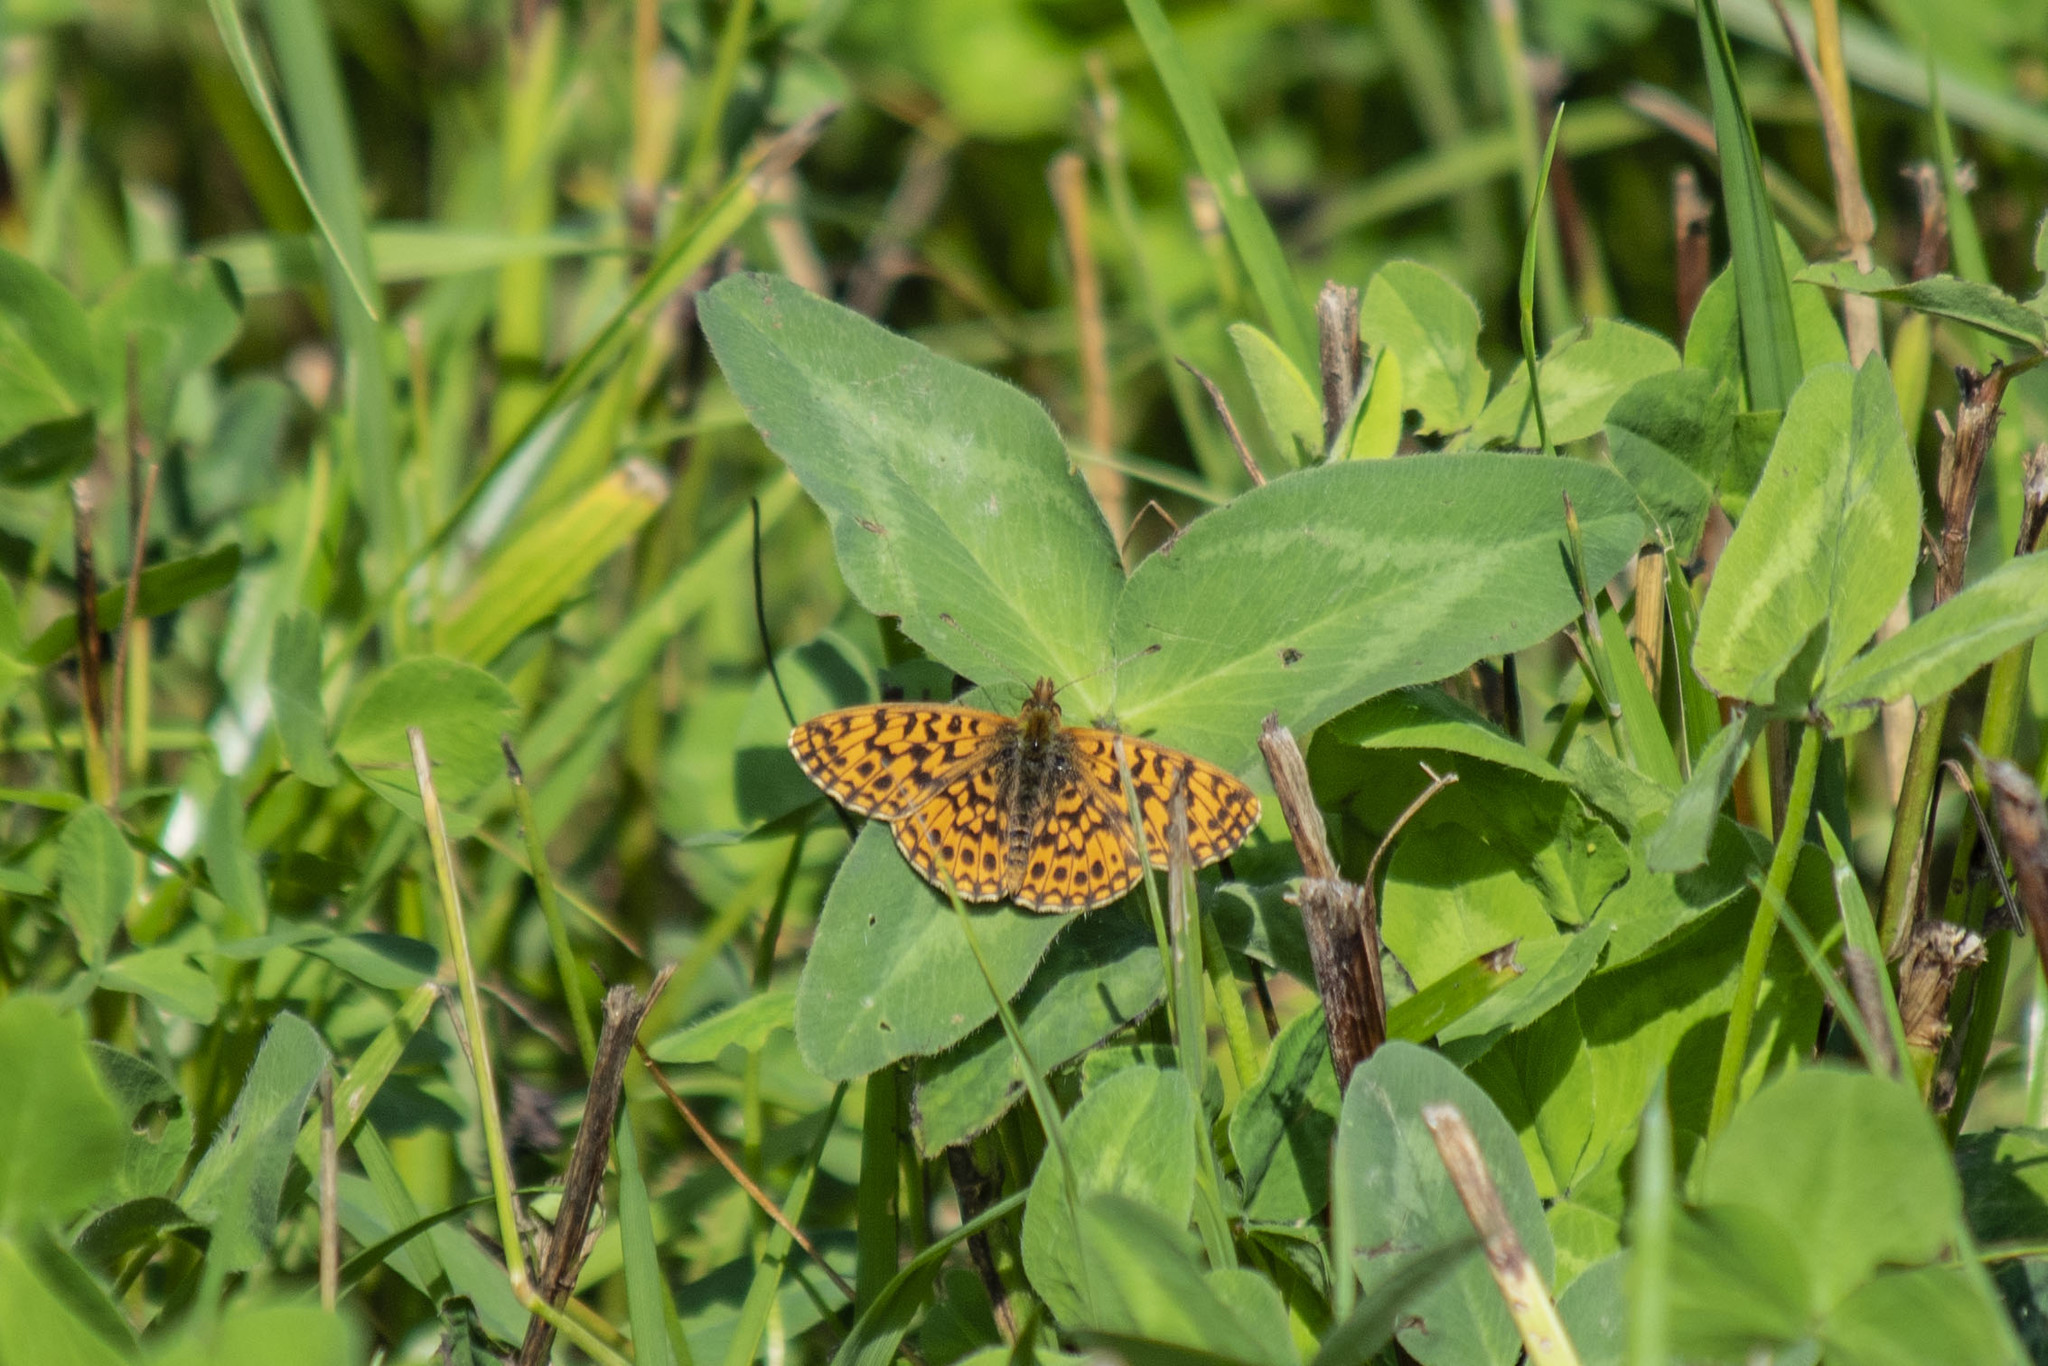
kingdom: Animalia
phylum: Arthropoda
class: Insecta
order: Lepidoptera
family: Nymphalidae
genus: Boloria
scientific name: Boloria dia
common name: Weaver's fritillary
